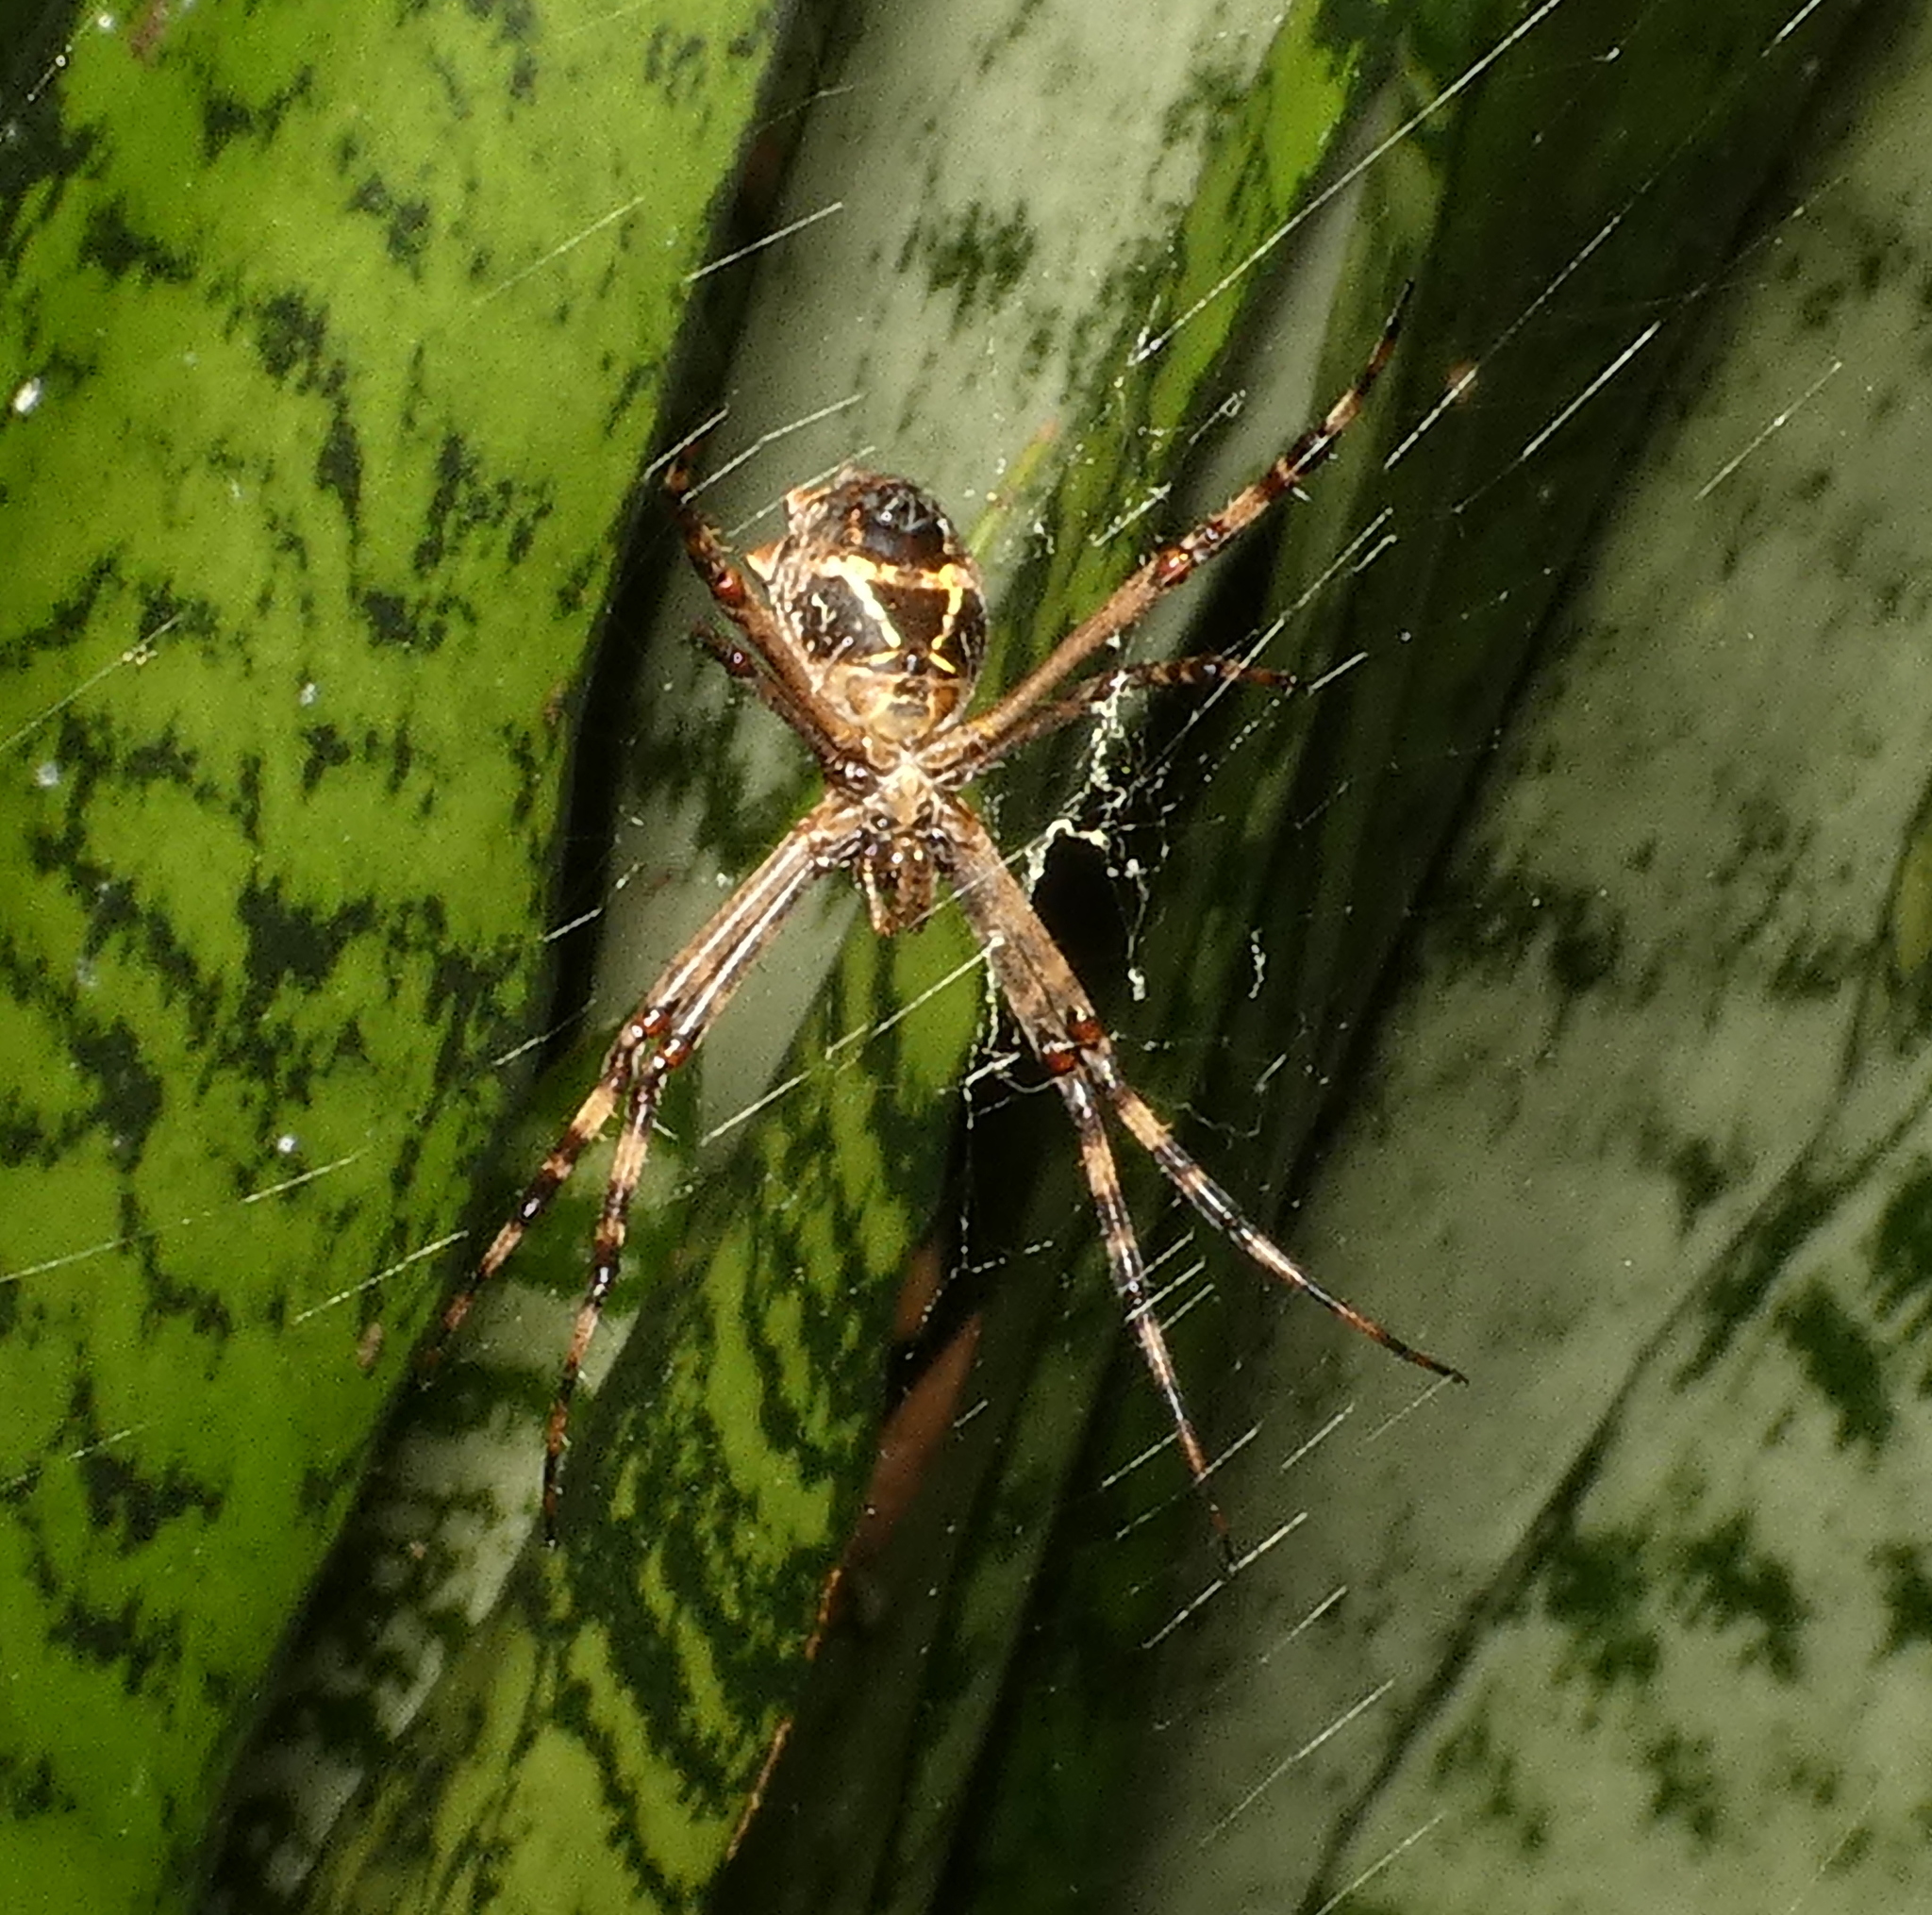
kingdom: Animalia
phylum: Arthropoda
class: Arachnida
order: Araneae
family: Araneidae
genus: Argiope
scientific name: Argiope argentata
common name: Orb weavers
